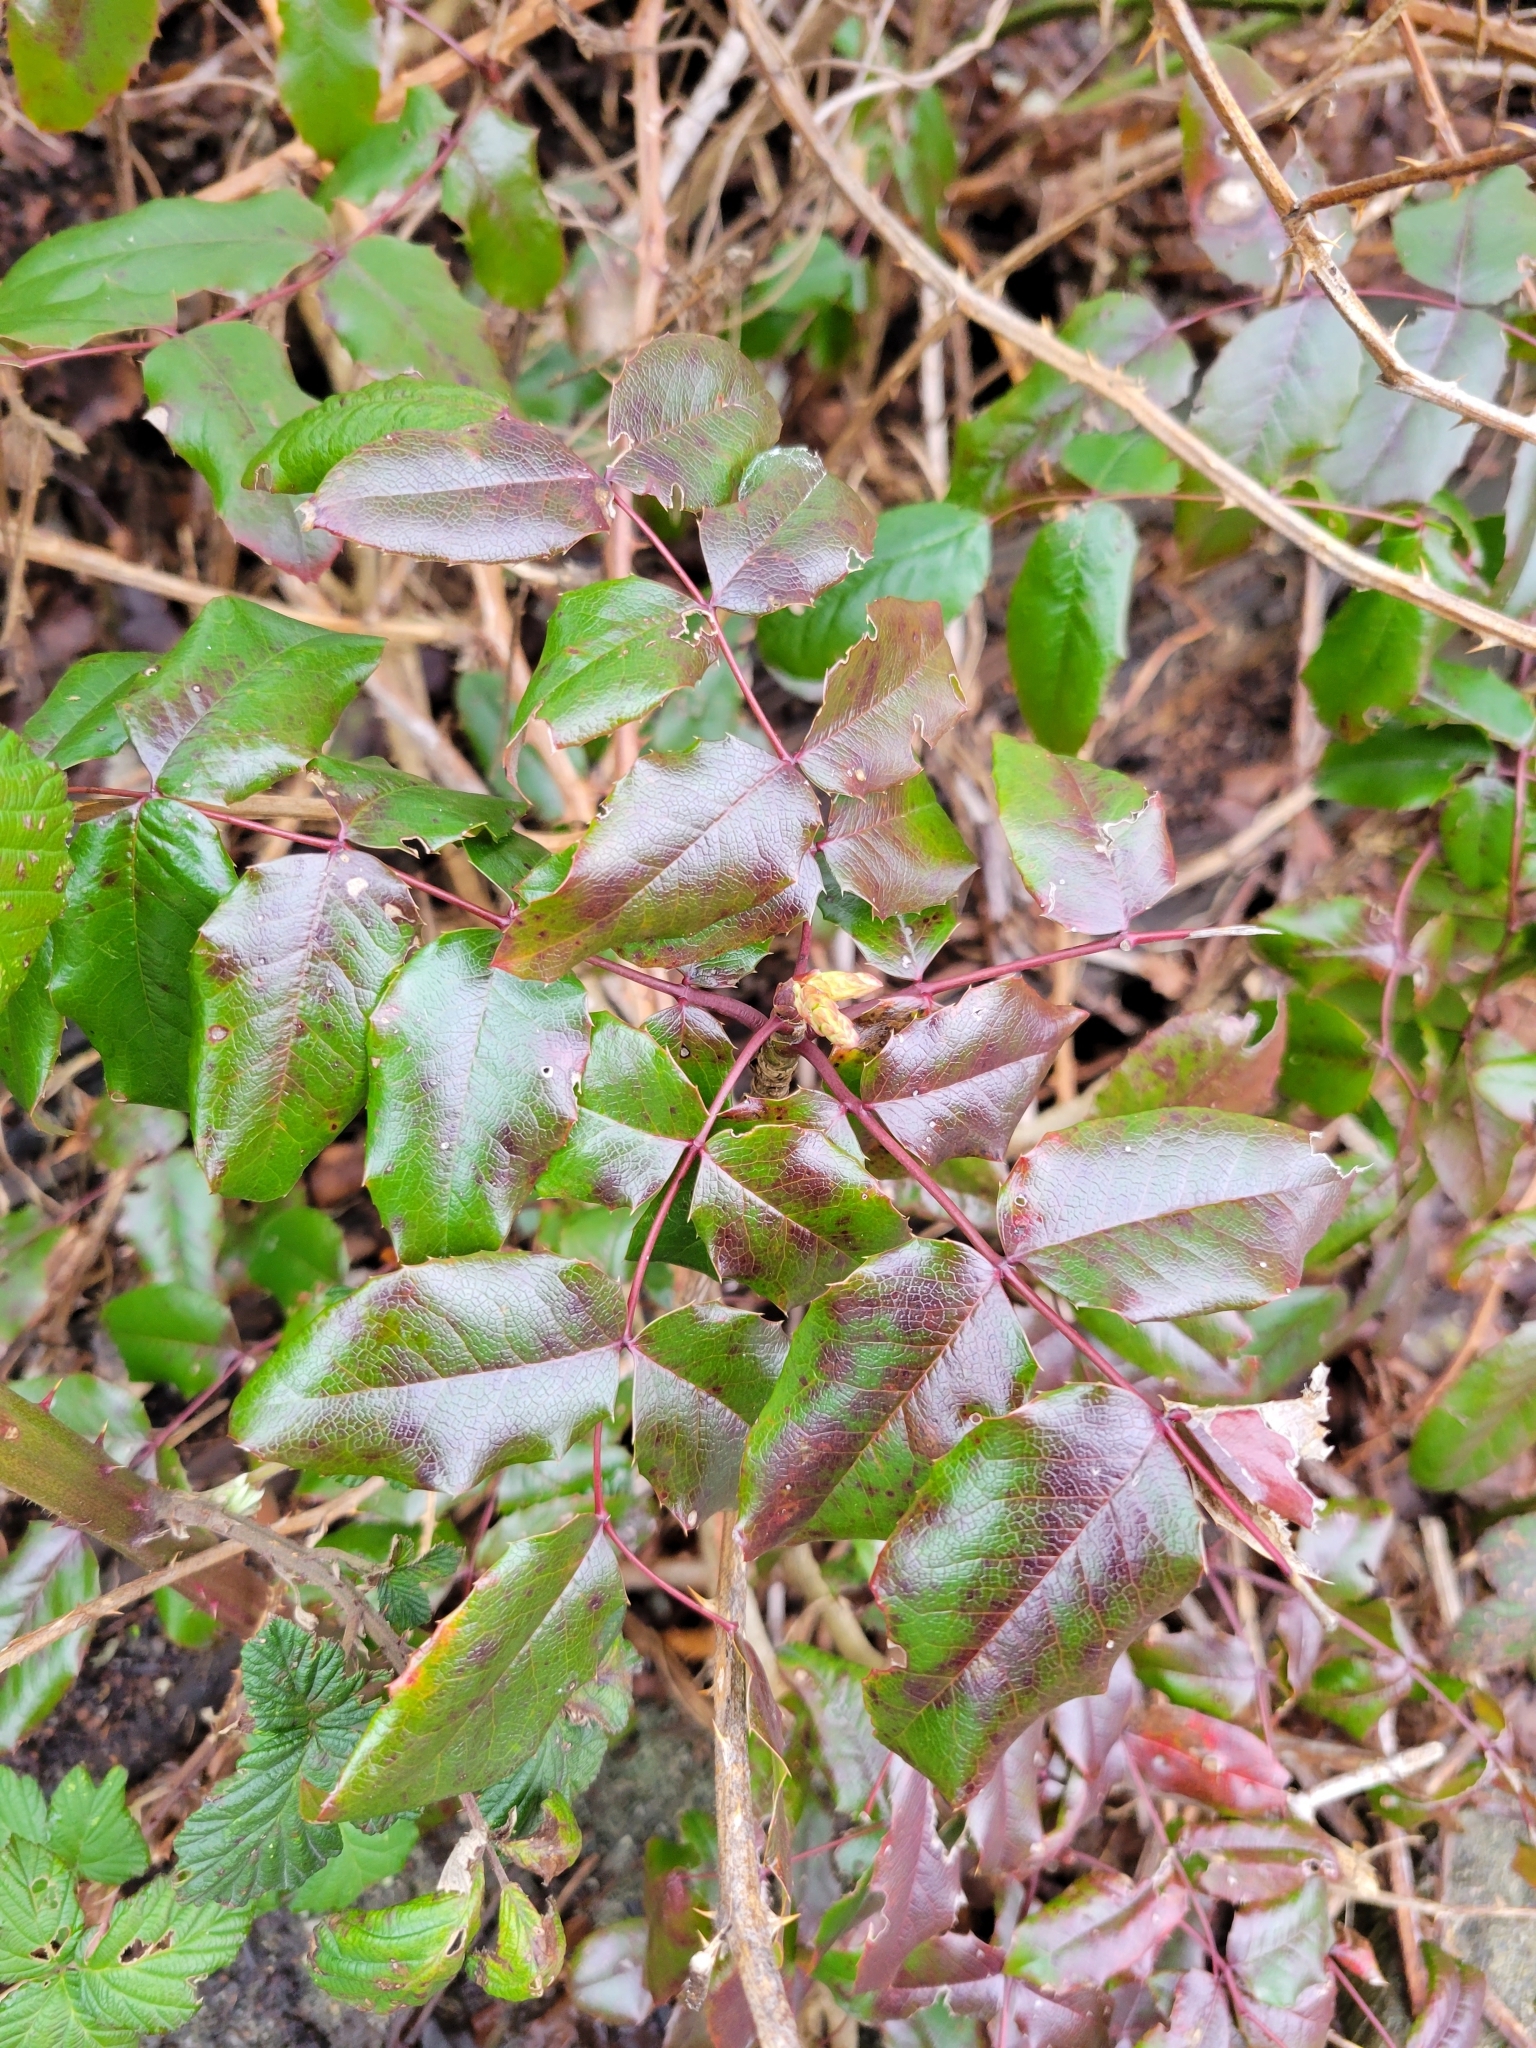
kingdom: Plantae
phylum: Tracheophyta
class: Magnoliopsida
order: Ranunculales
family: Berberidaceae
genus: Mahonia
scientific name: Mahonia aquifolium
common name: Oregon-grape
